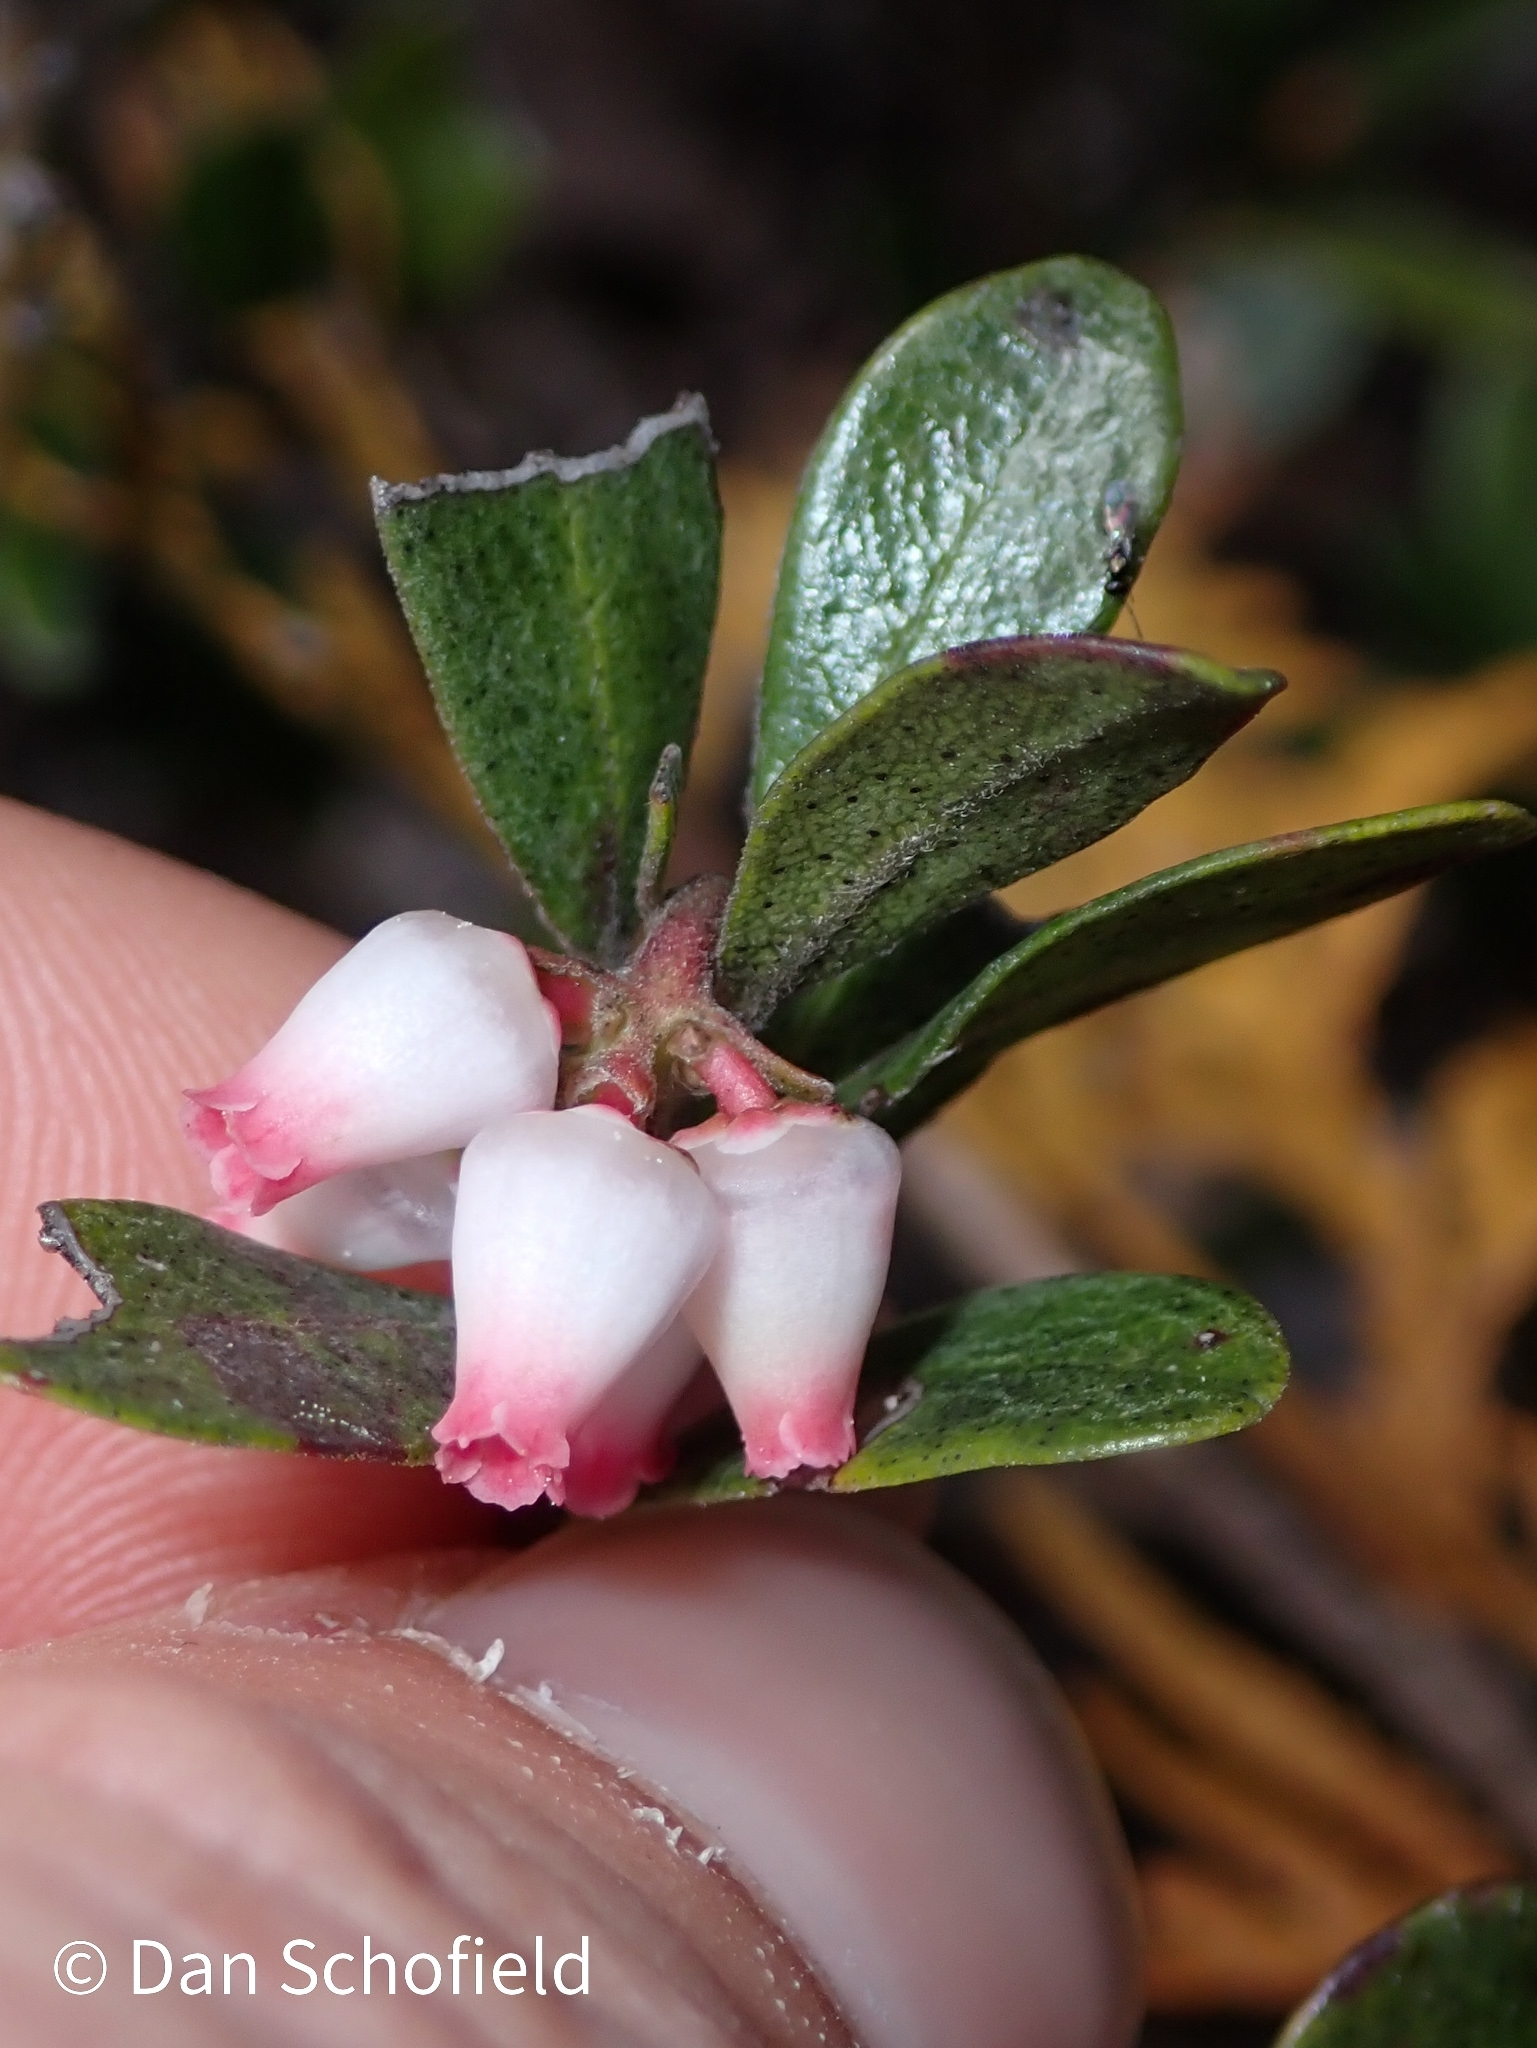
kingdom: Plantae
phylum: Tracheophyta
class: Magnoliopsida
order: Ericales
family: Ericaceae
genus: Arctostaphylos
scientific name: Arctostaphylos uva-ursi
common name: Bearberry
